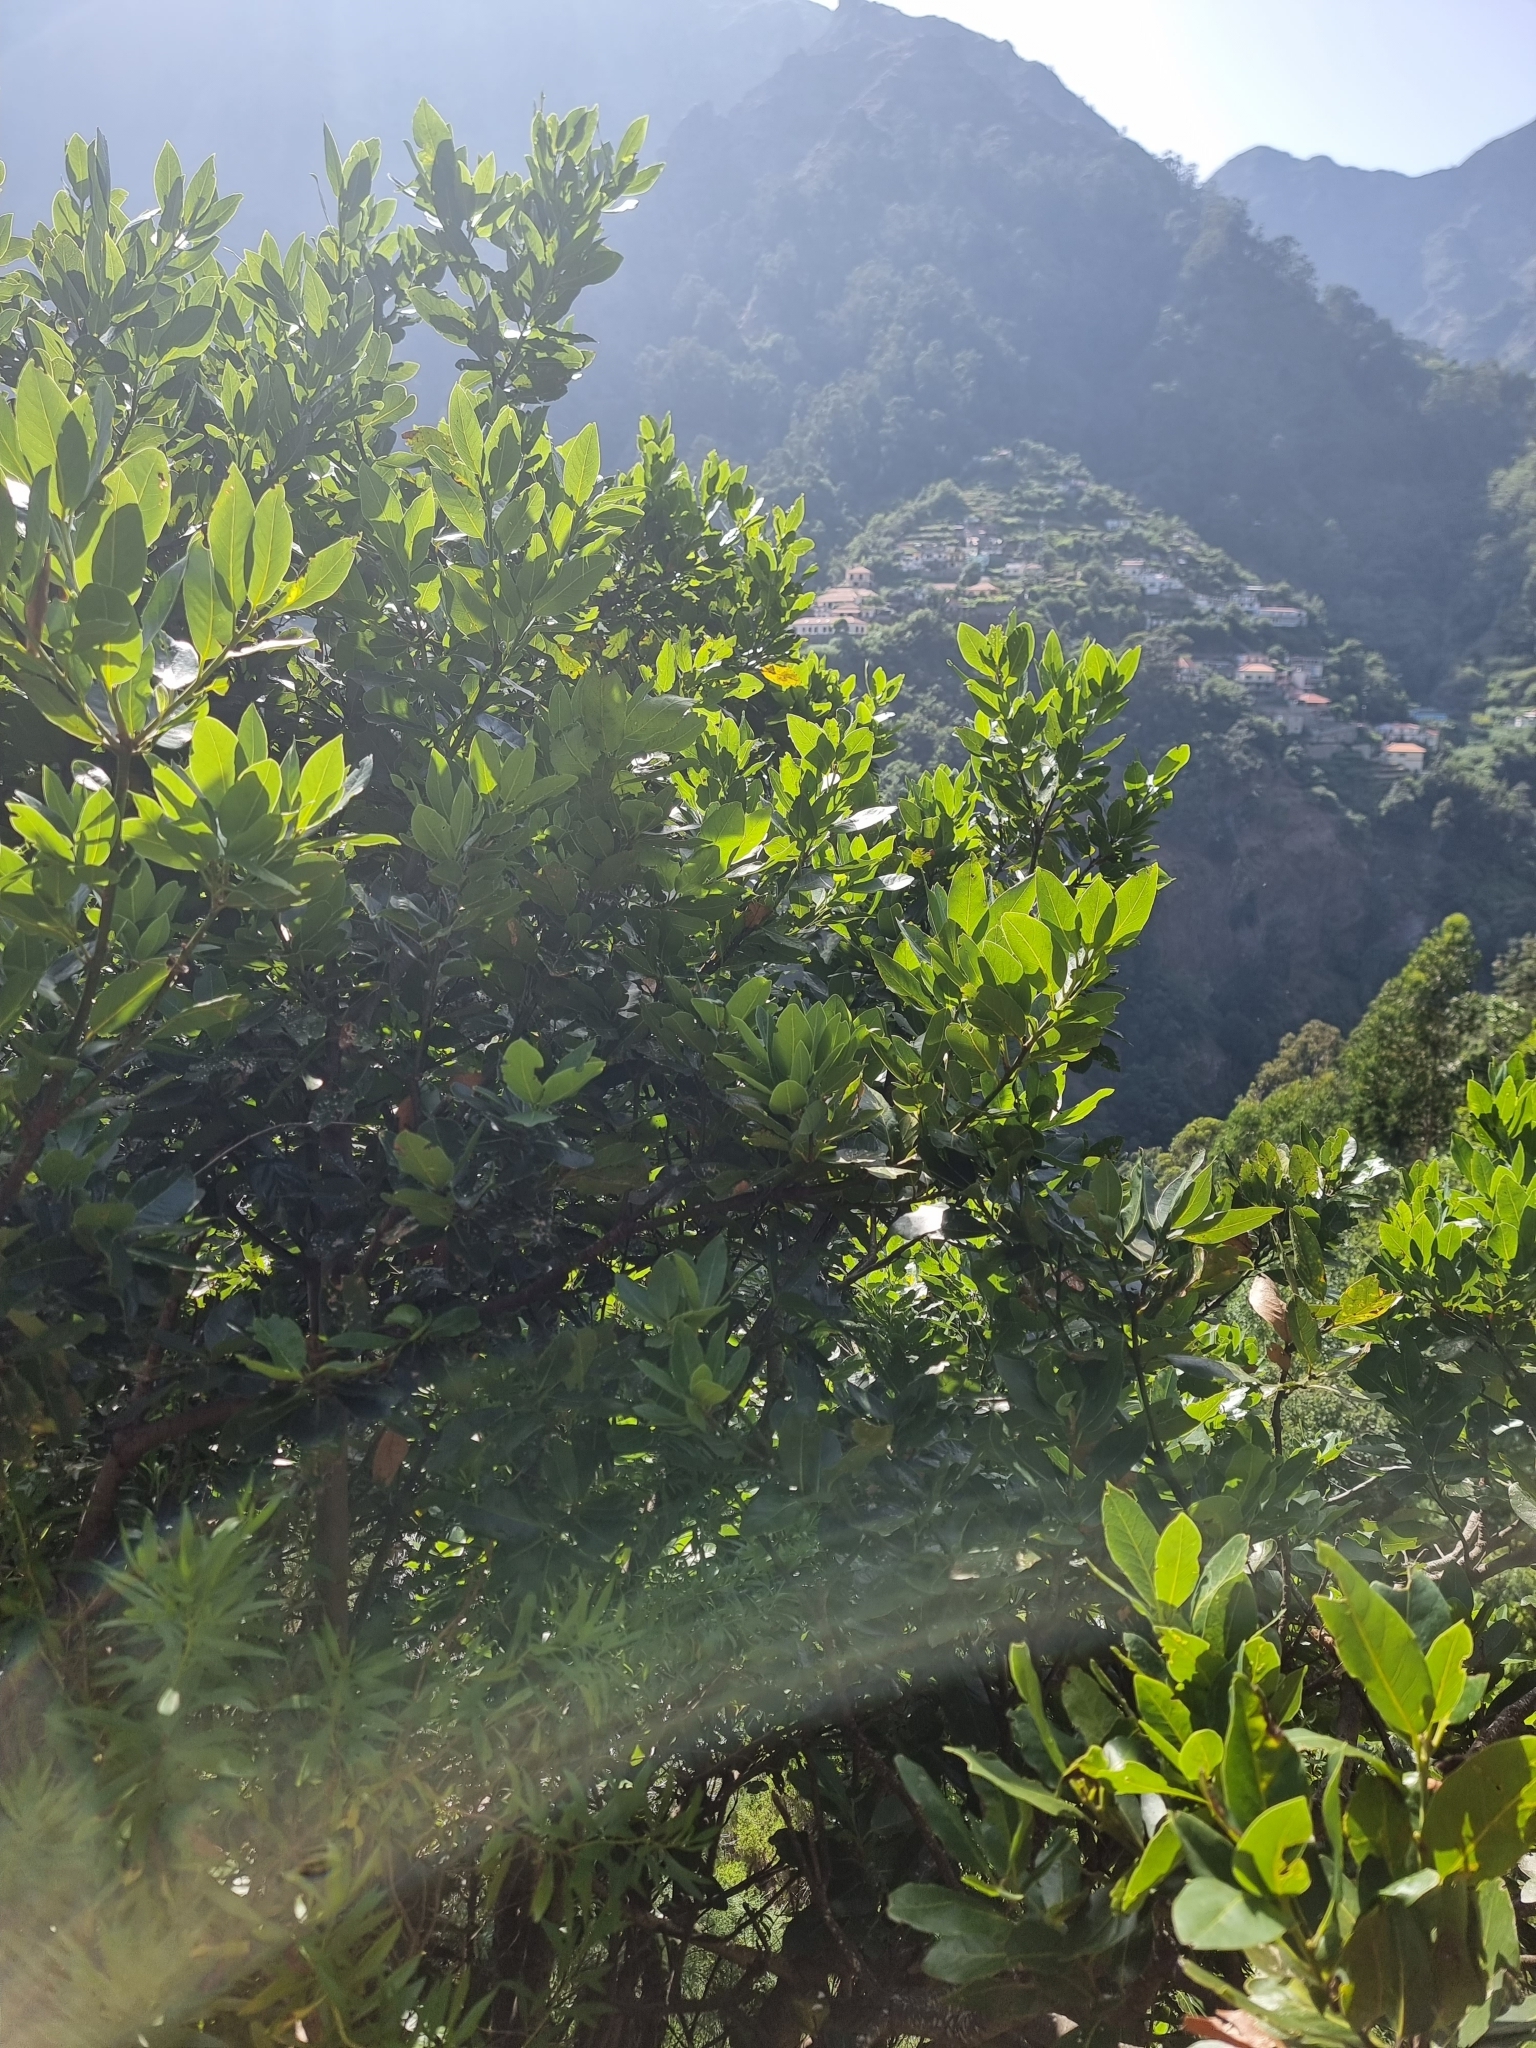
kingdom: Plantae
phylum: Tracheophyta
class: Magnoliopsida
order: Laurales
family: Lauraceae
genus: Laurus
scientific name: Laurus novocanariensis
